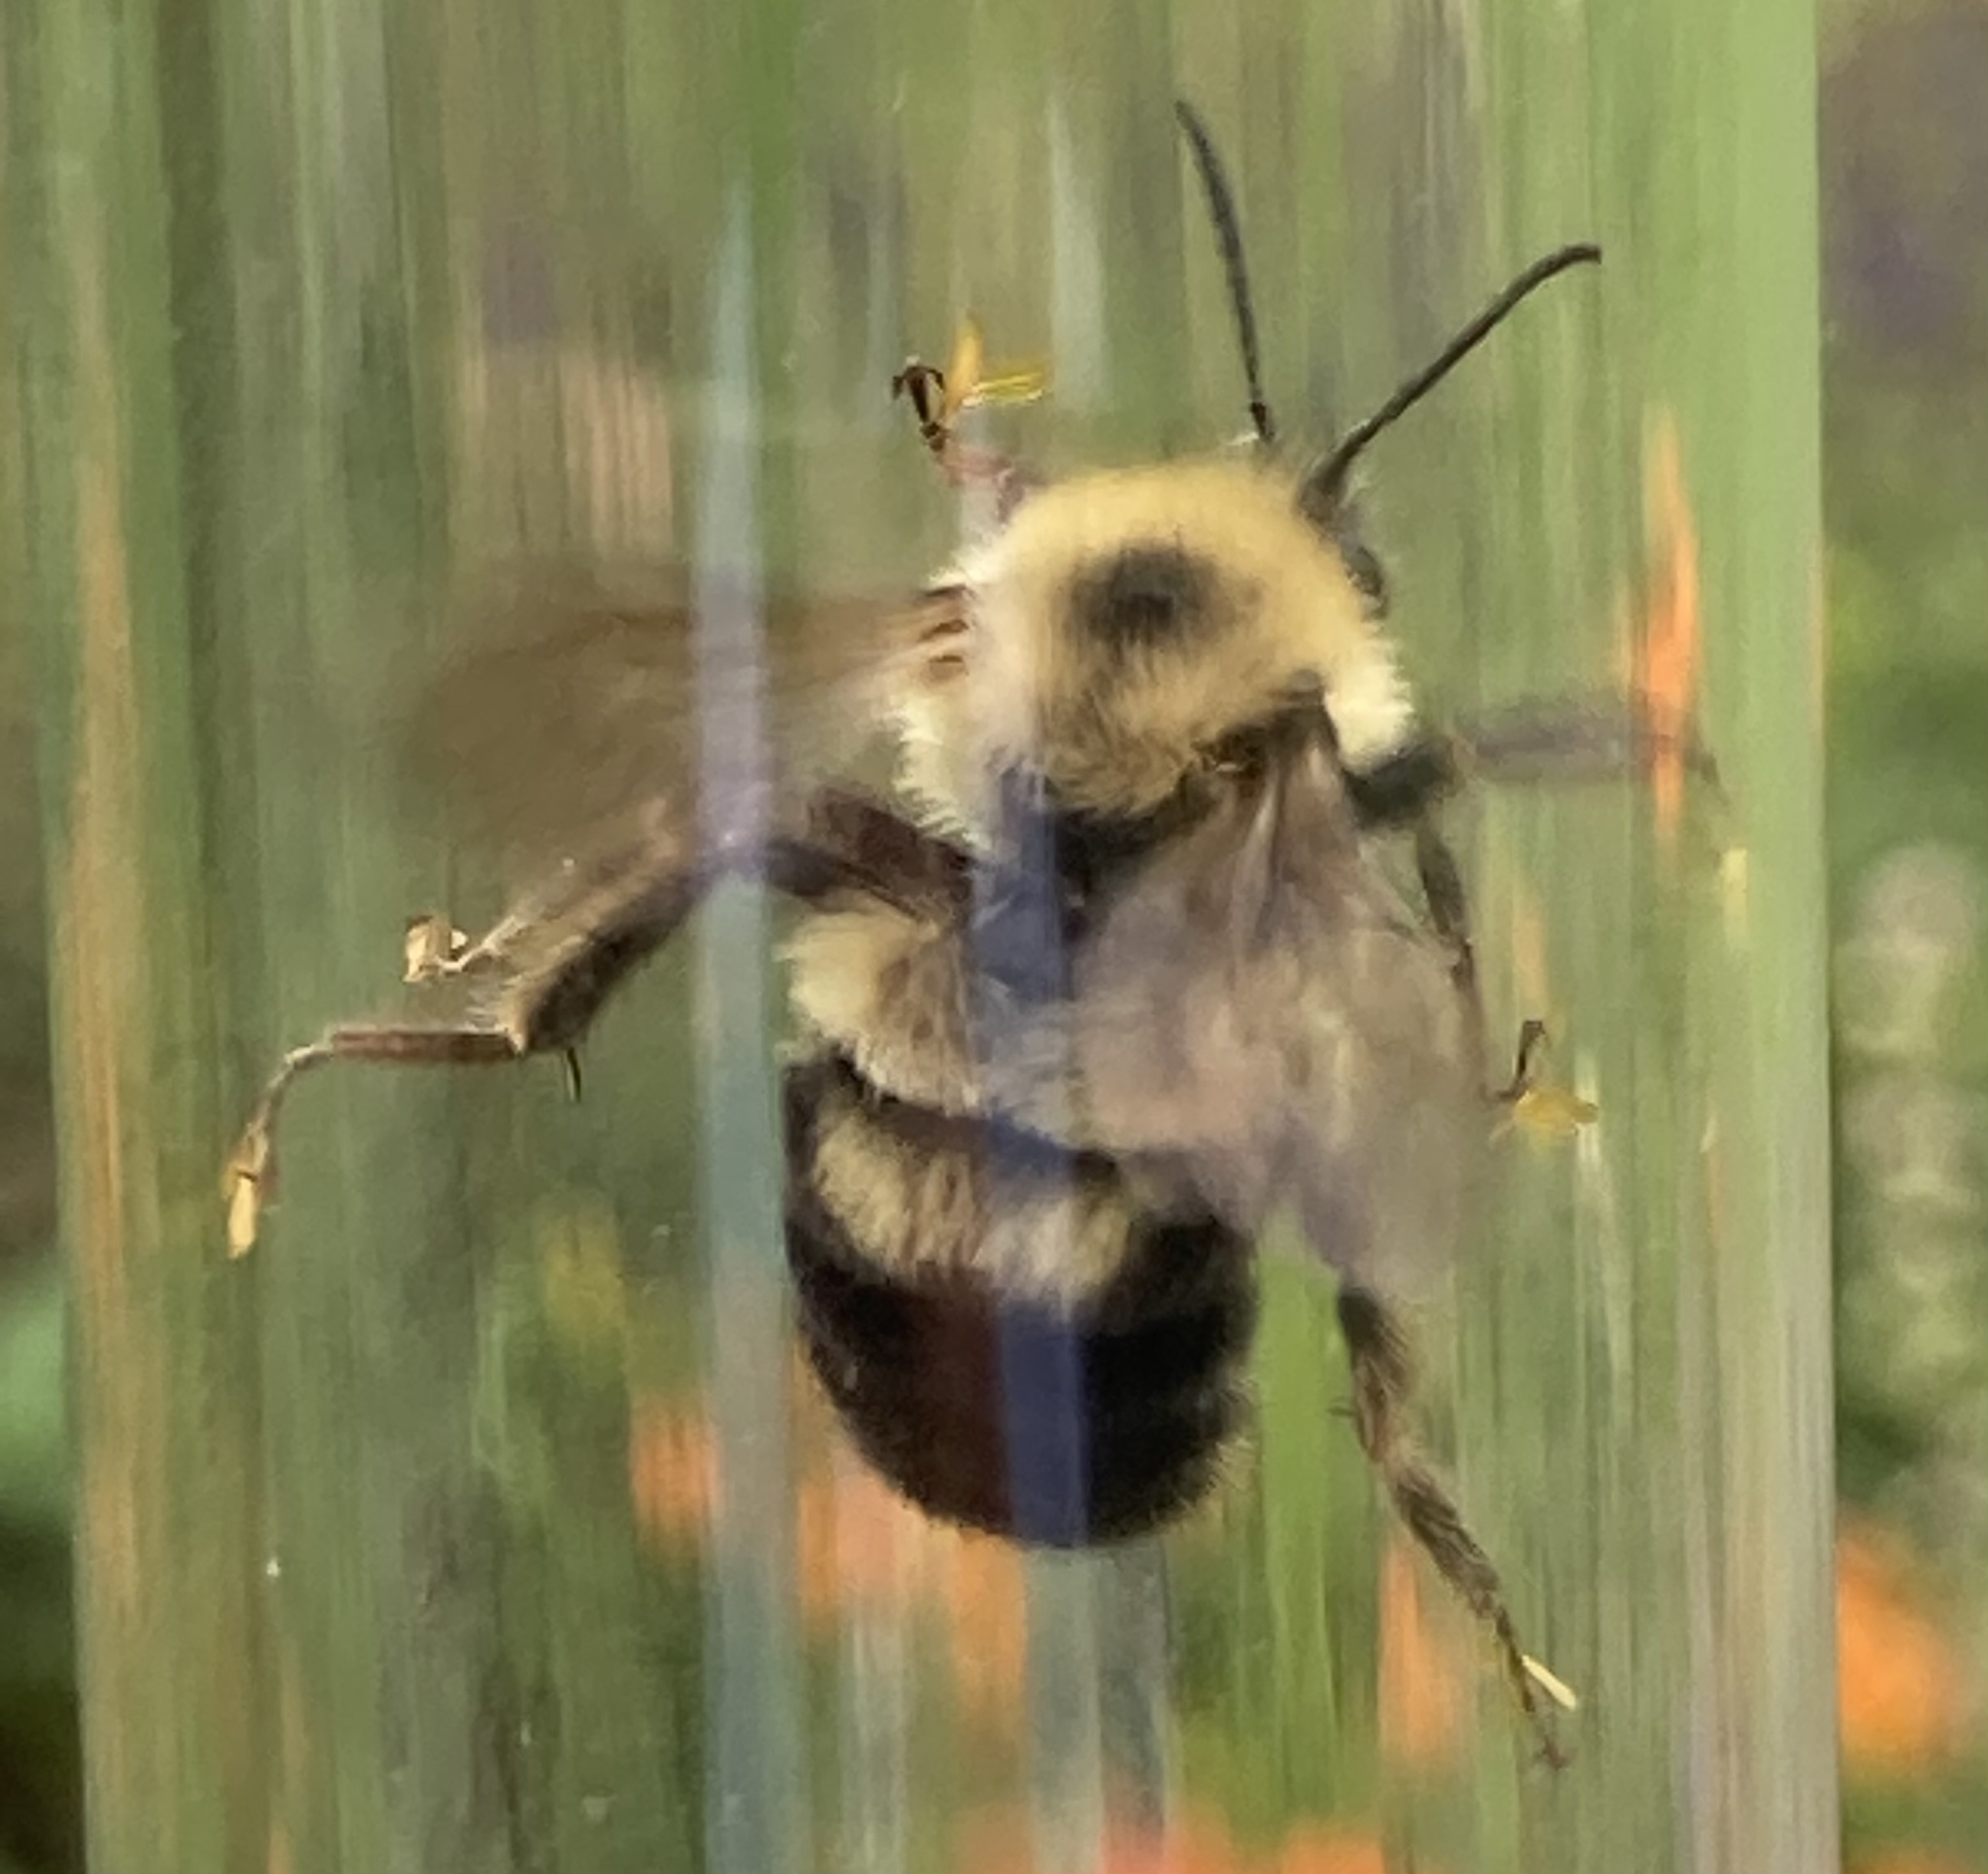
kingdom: Animalia
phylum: Arthropoda
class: Insecta
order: Hymenoptera
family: Apidae
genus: Bombus
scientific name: Bombus bimaculatus
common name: Two-spotted bumble bee
